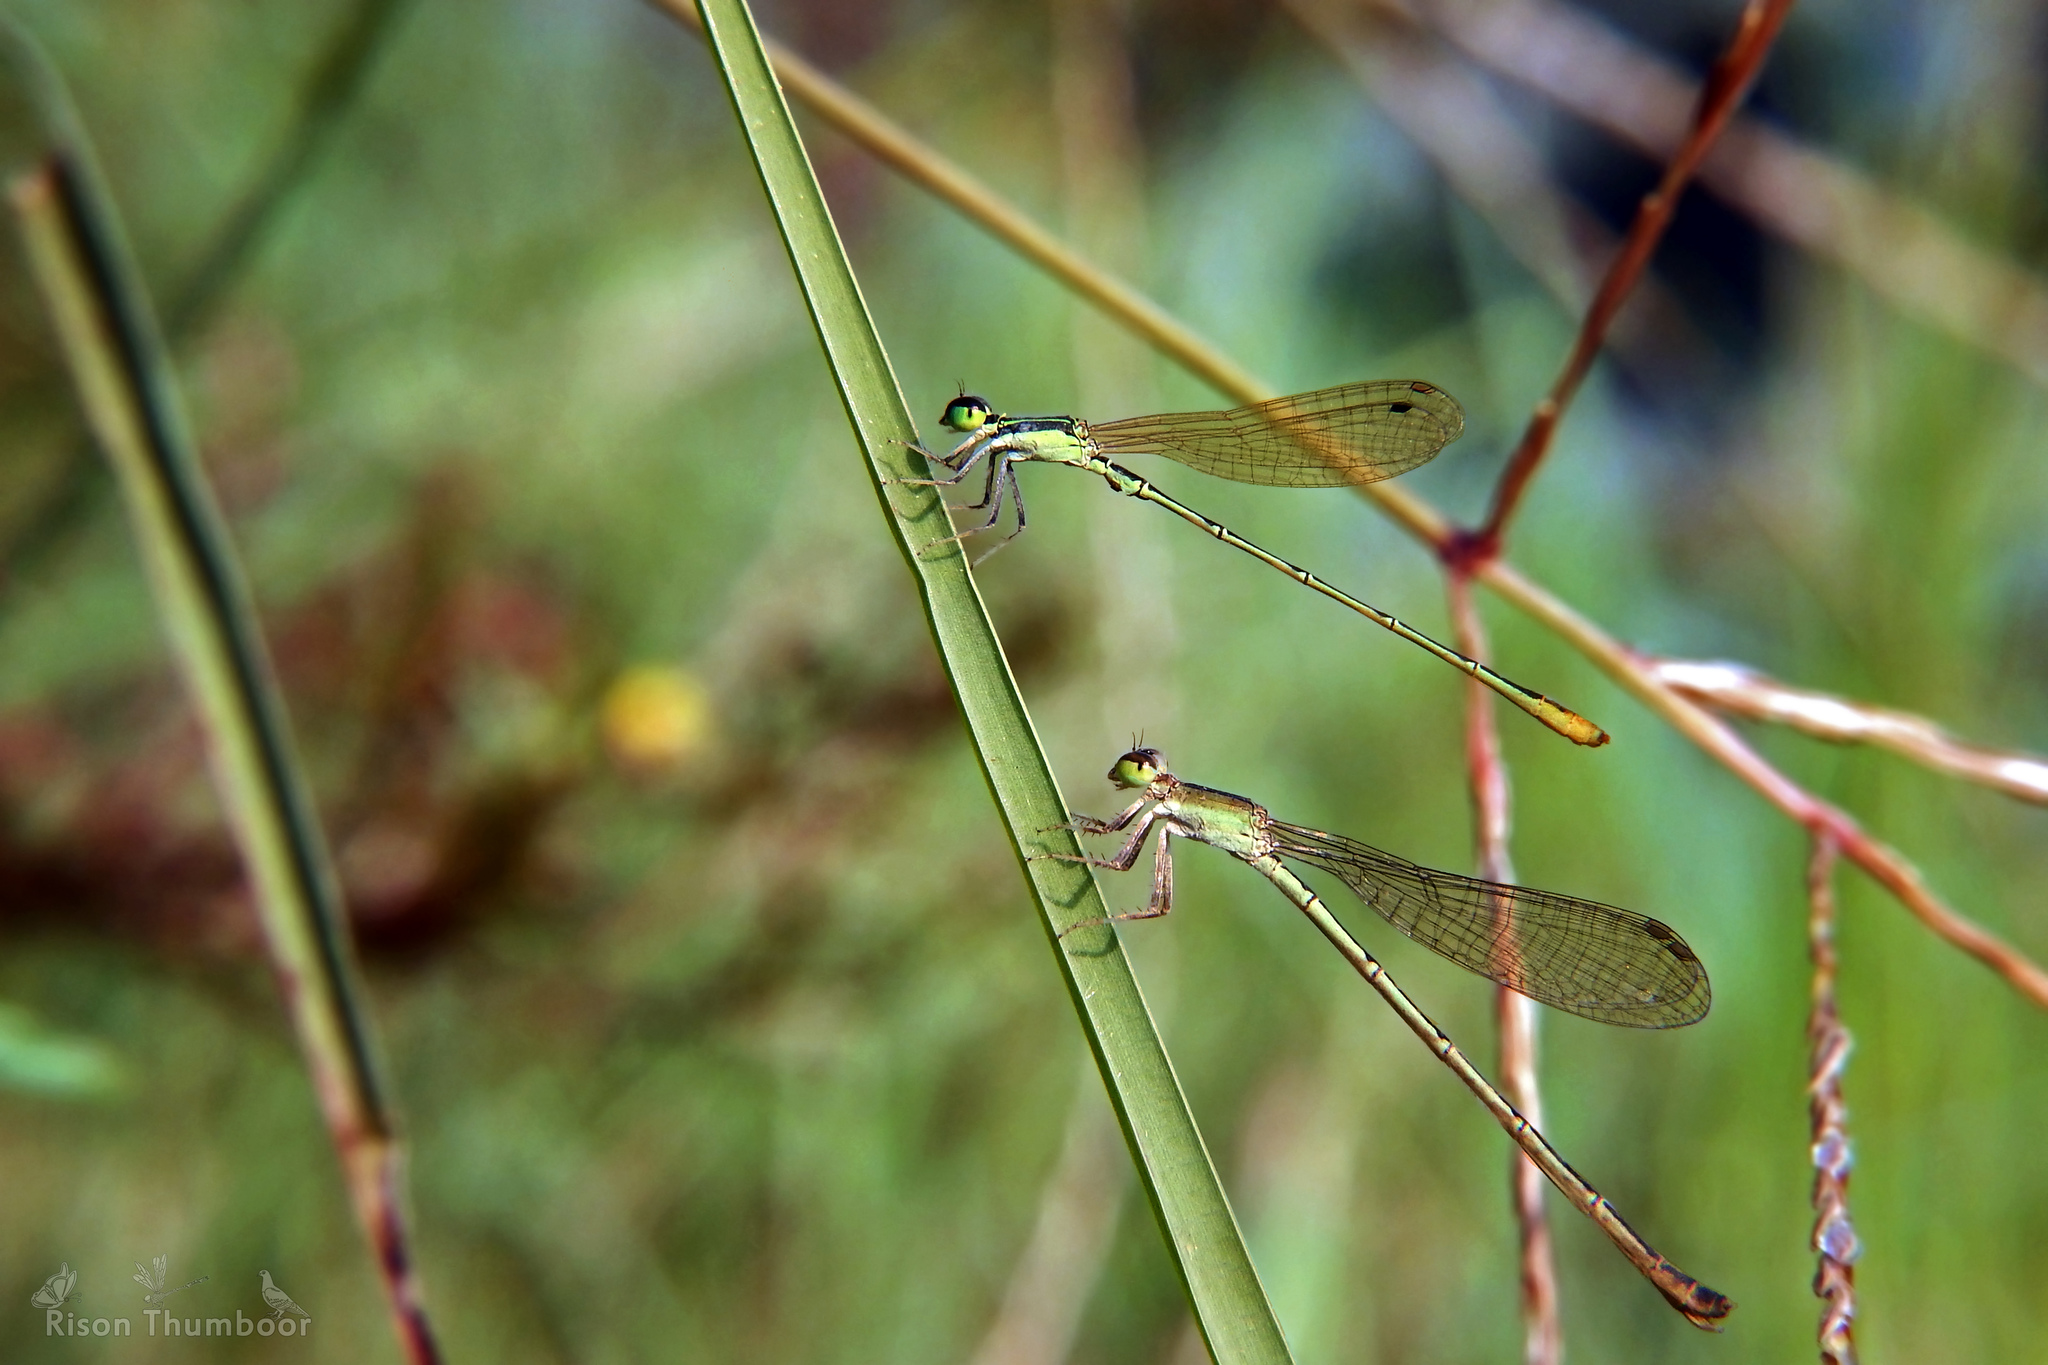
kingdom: Animalia
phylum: Arthropoda
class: Insecta
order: Odonata
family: Coenagrionidae
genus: Agriocnemis
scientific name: Agriocnemis pygmaea
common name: Pygmy wisp
